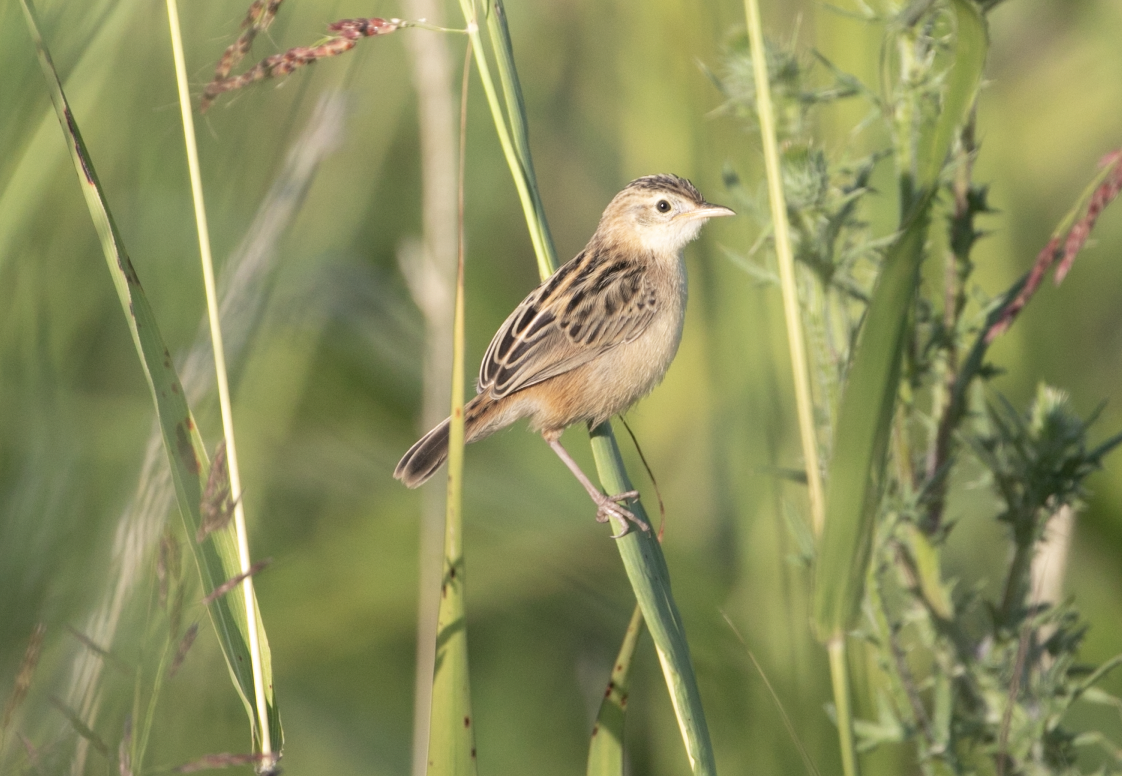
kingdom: Animalia
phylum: Chordata
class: Aves
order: Passeriformes
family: Cisticolidae
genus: Cisticola
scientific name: Cisticola juncidis
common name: Zitting cisticola
